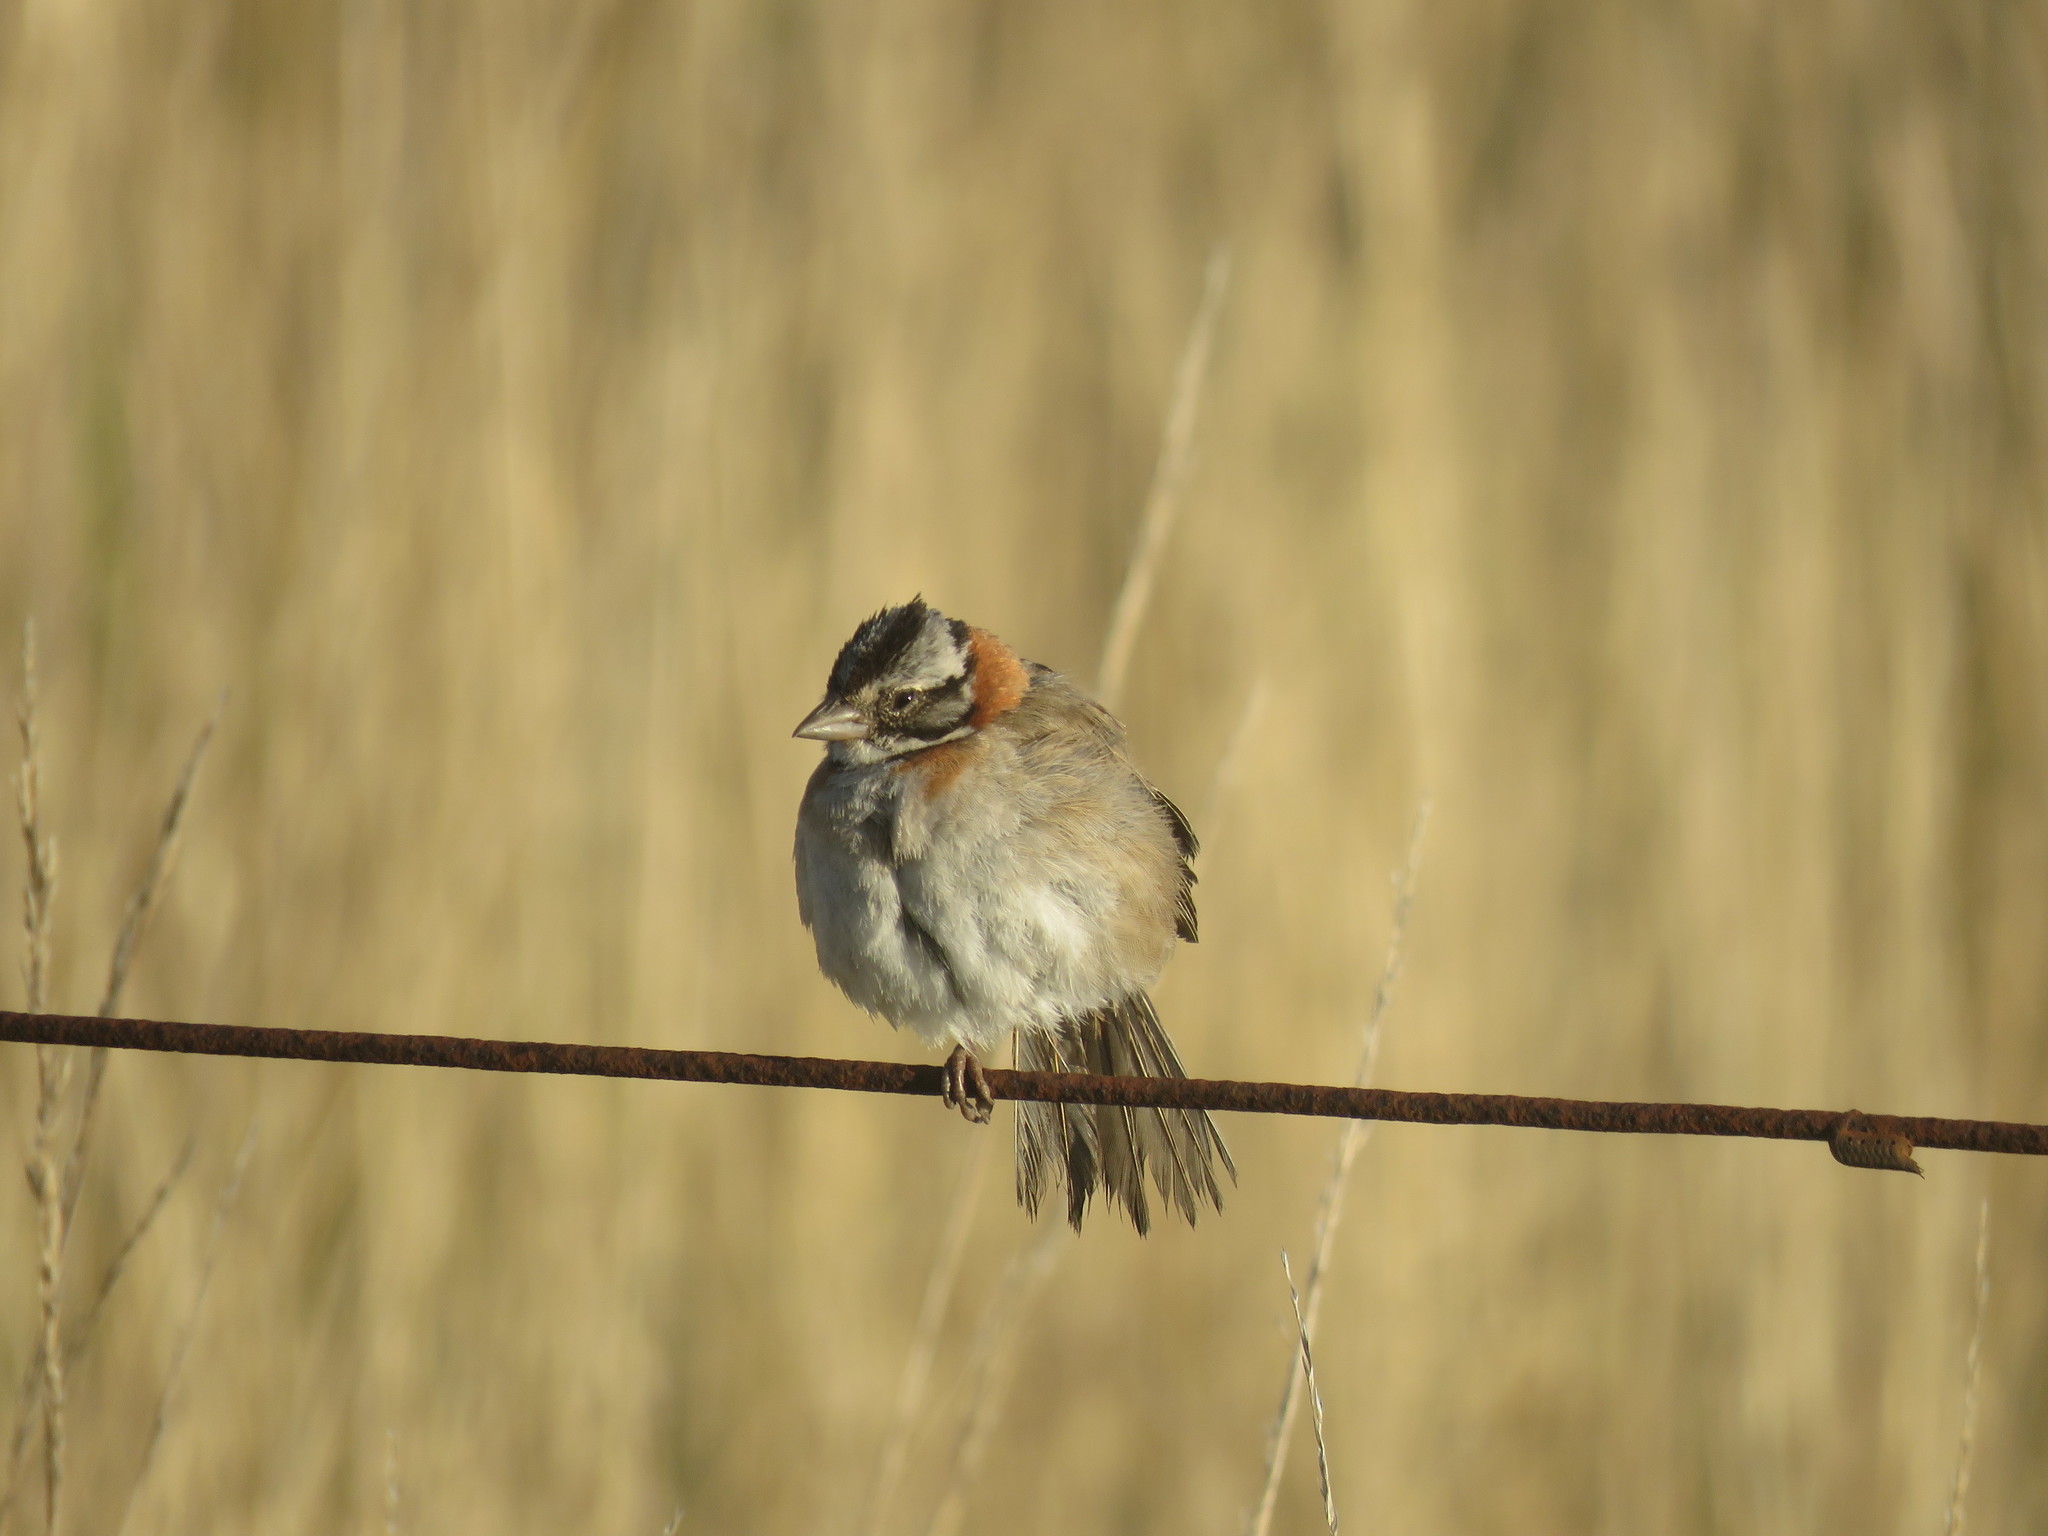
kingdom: Animalia
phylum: Chordata
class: Aves
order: Passeriformes
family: Passerellidae
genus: Zonotrichia
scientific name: Zonotrichia capensis
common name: Rufous-collared sparrow
